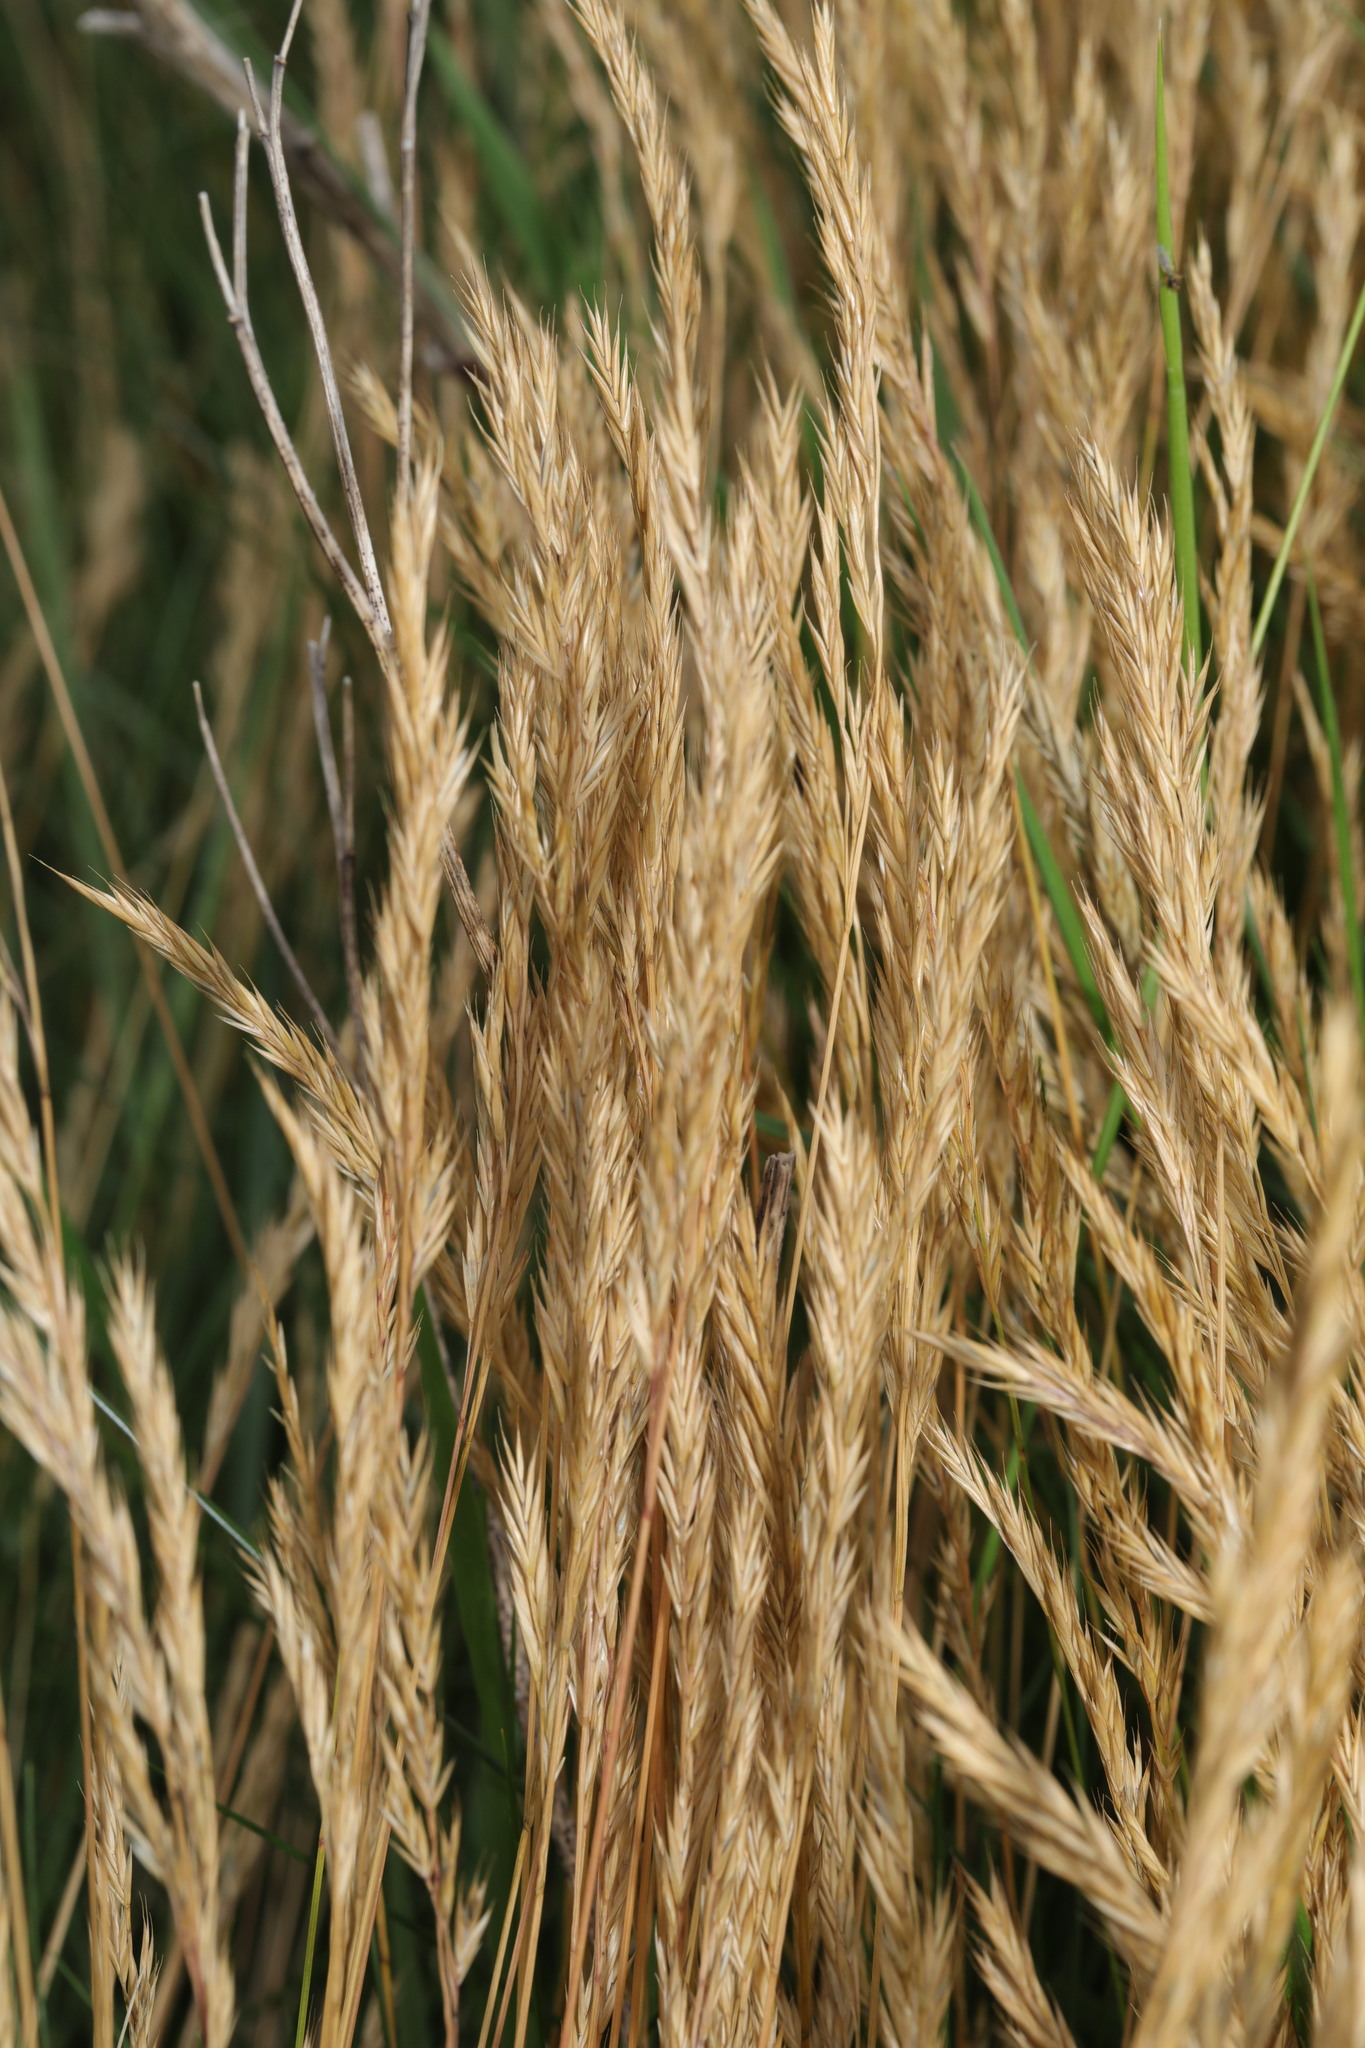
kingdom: Plantae
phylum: Tracheophyta
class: Liliopsida
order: Poales
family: Poaceae
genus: Festuca
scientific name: Festuca rubra
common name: Red fescue
